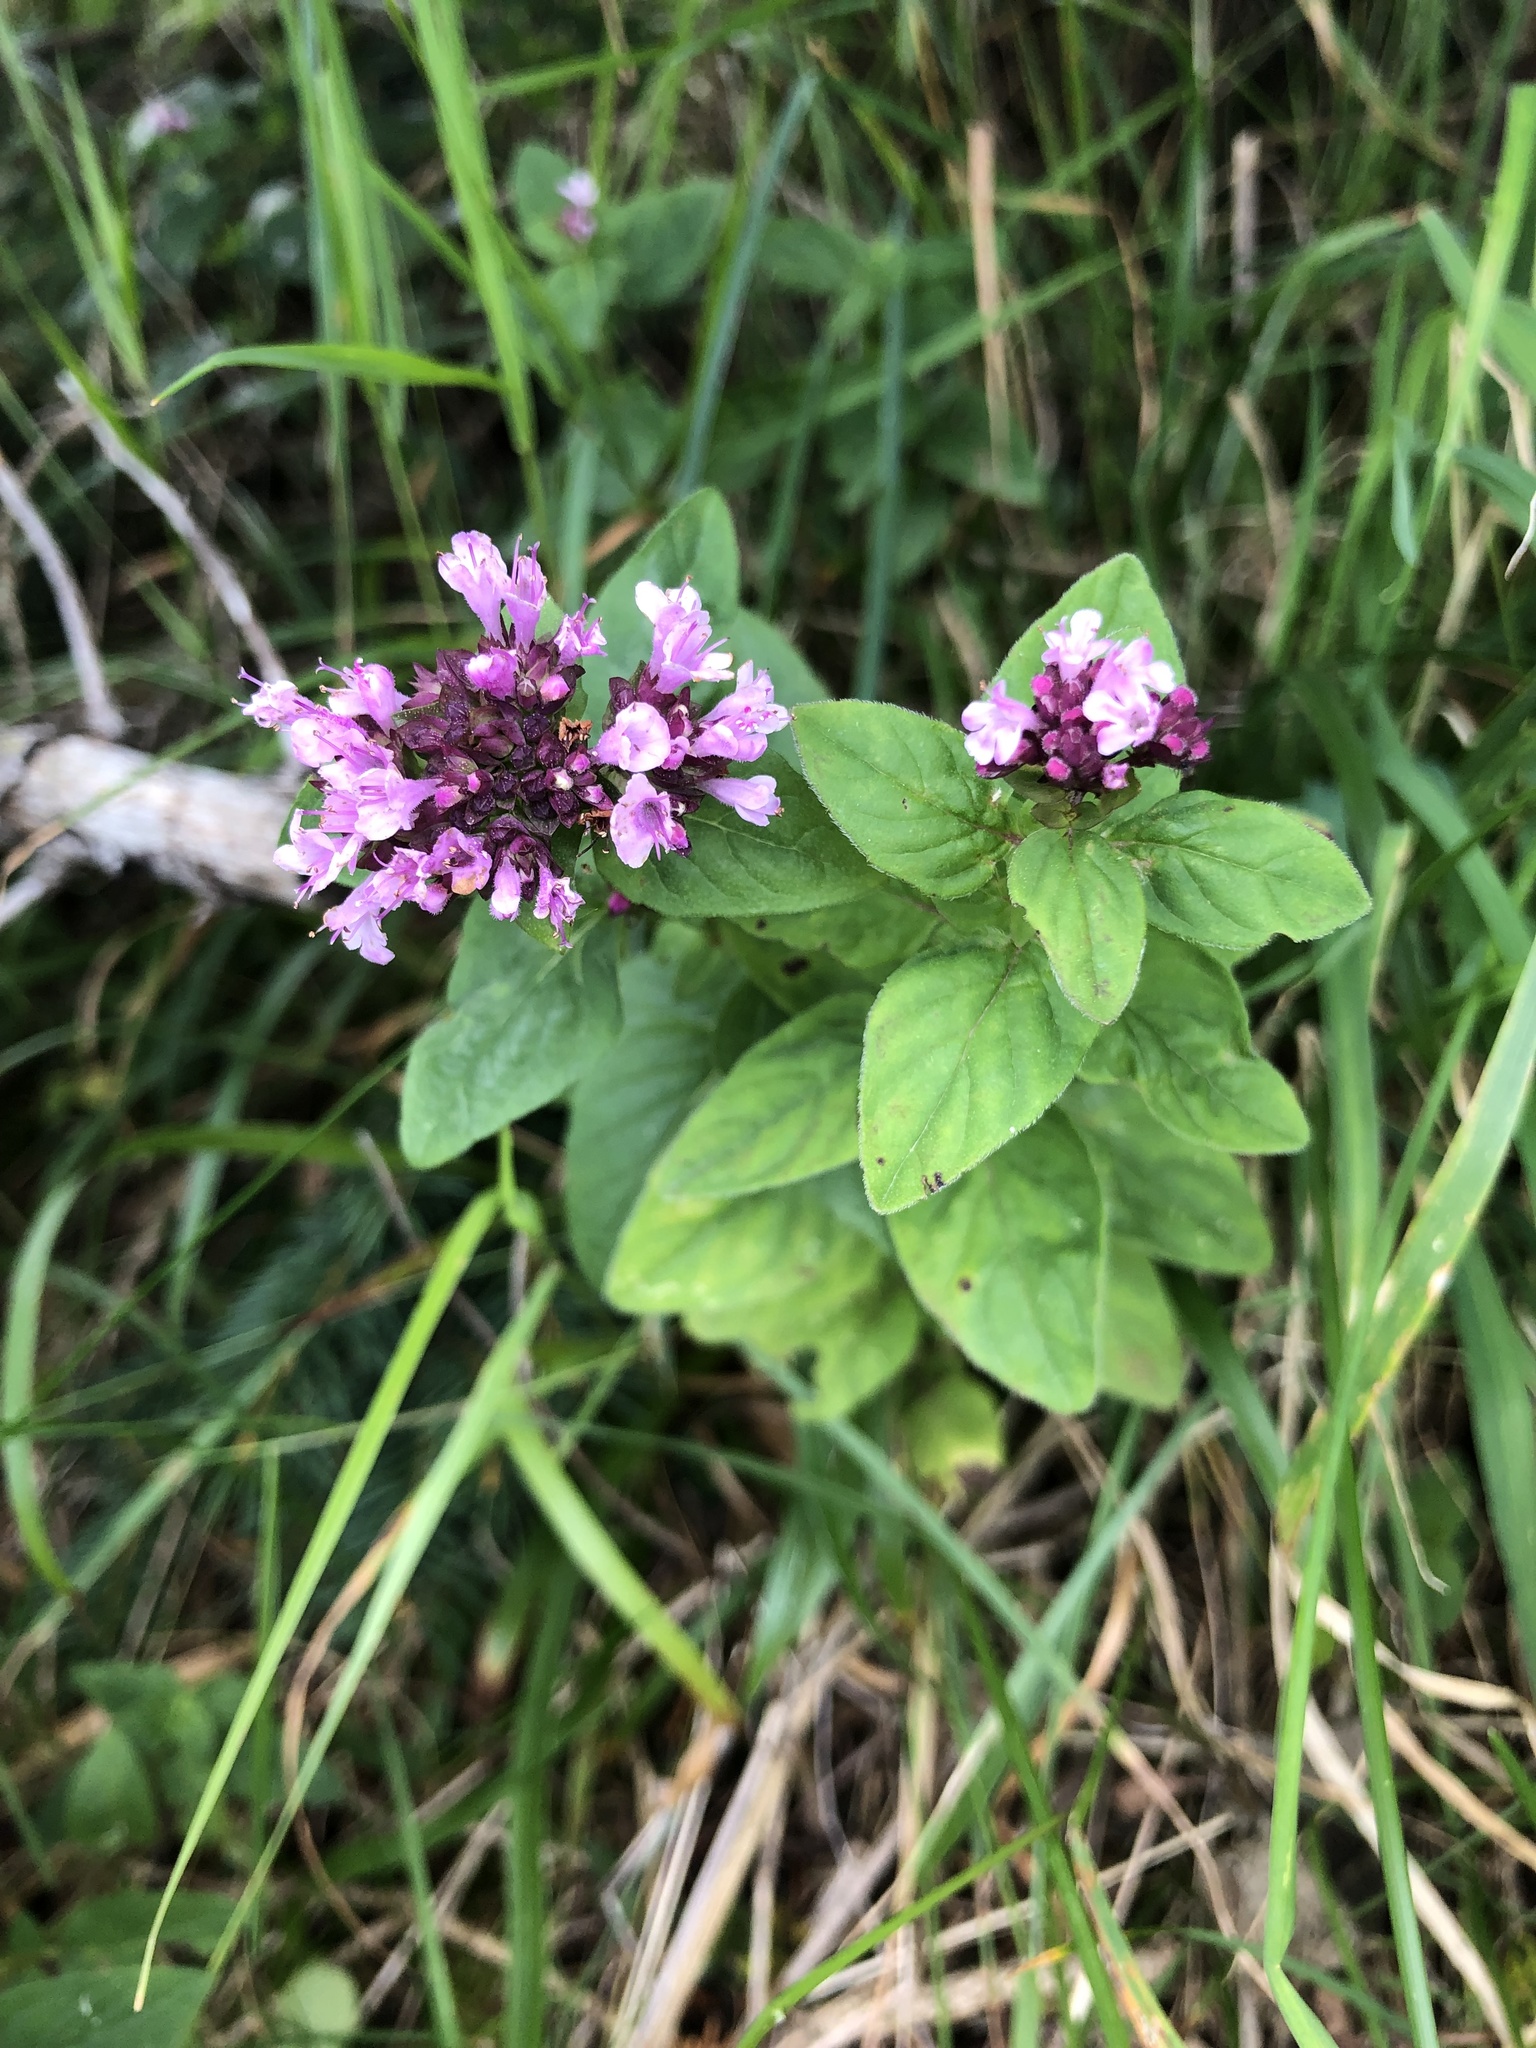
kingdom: Plantae
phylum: Tracheophyta
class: Magnoliopsida
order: Lamiales
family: Lamiaceae
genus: Origanum
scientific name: Origanum vulgare
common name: Wild marjoram
